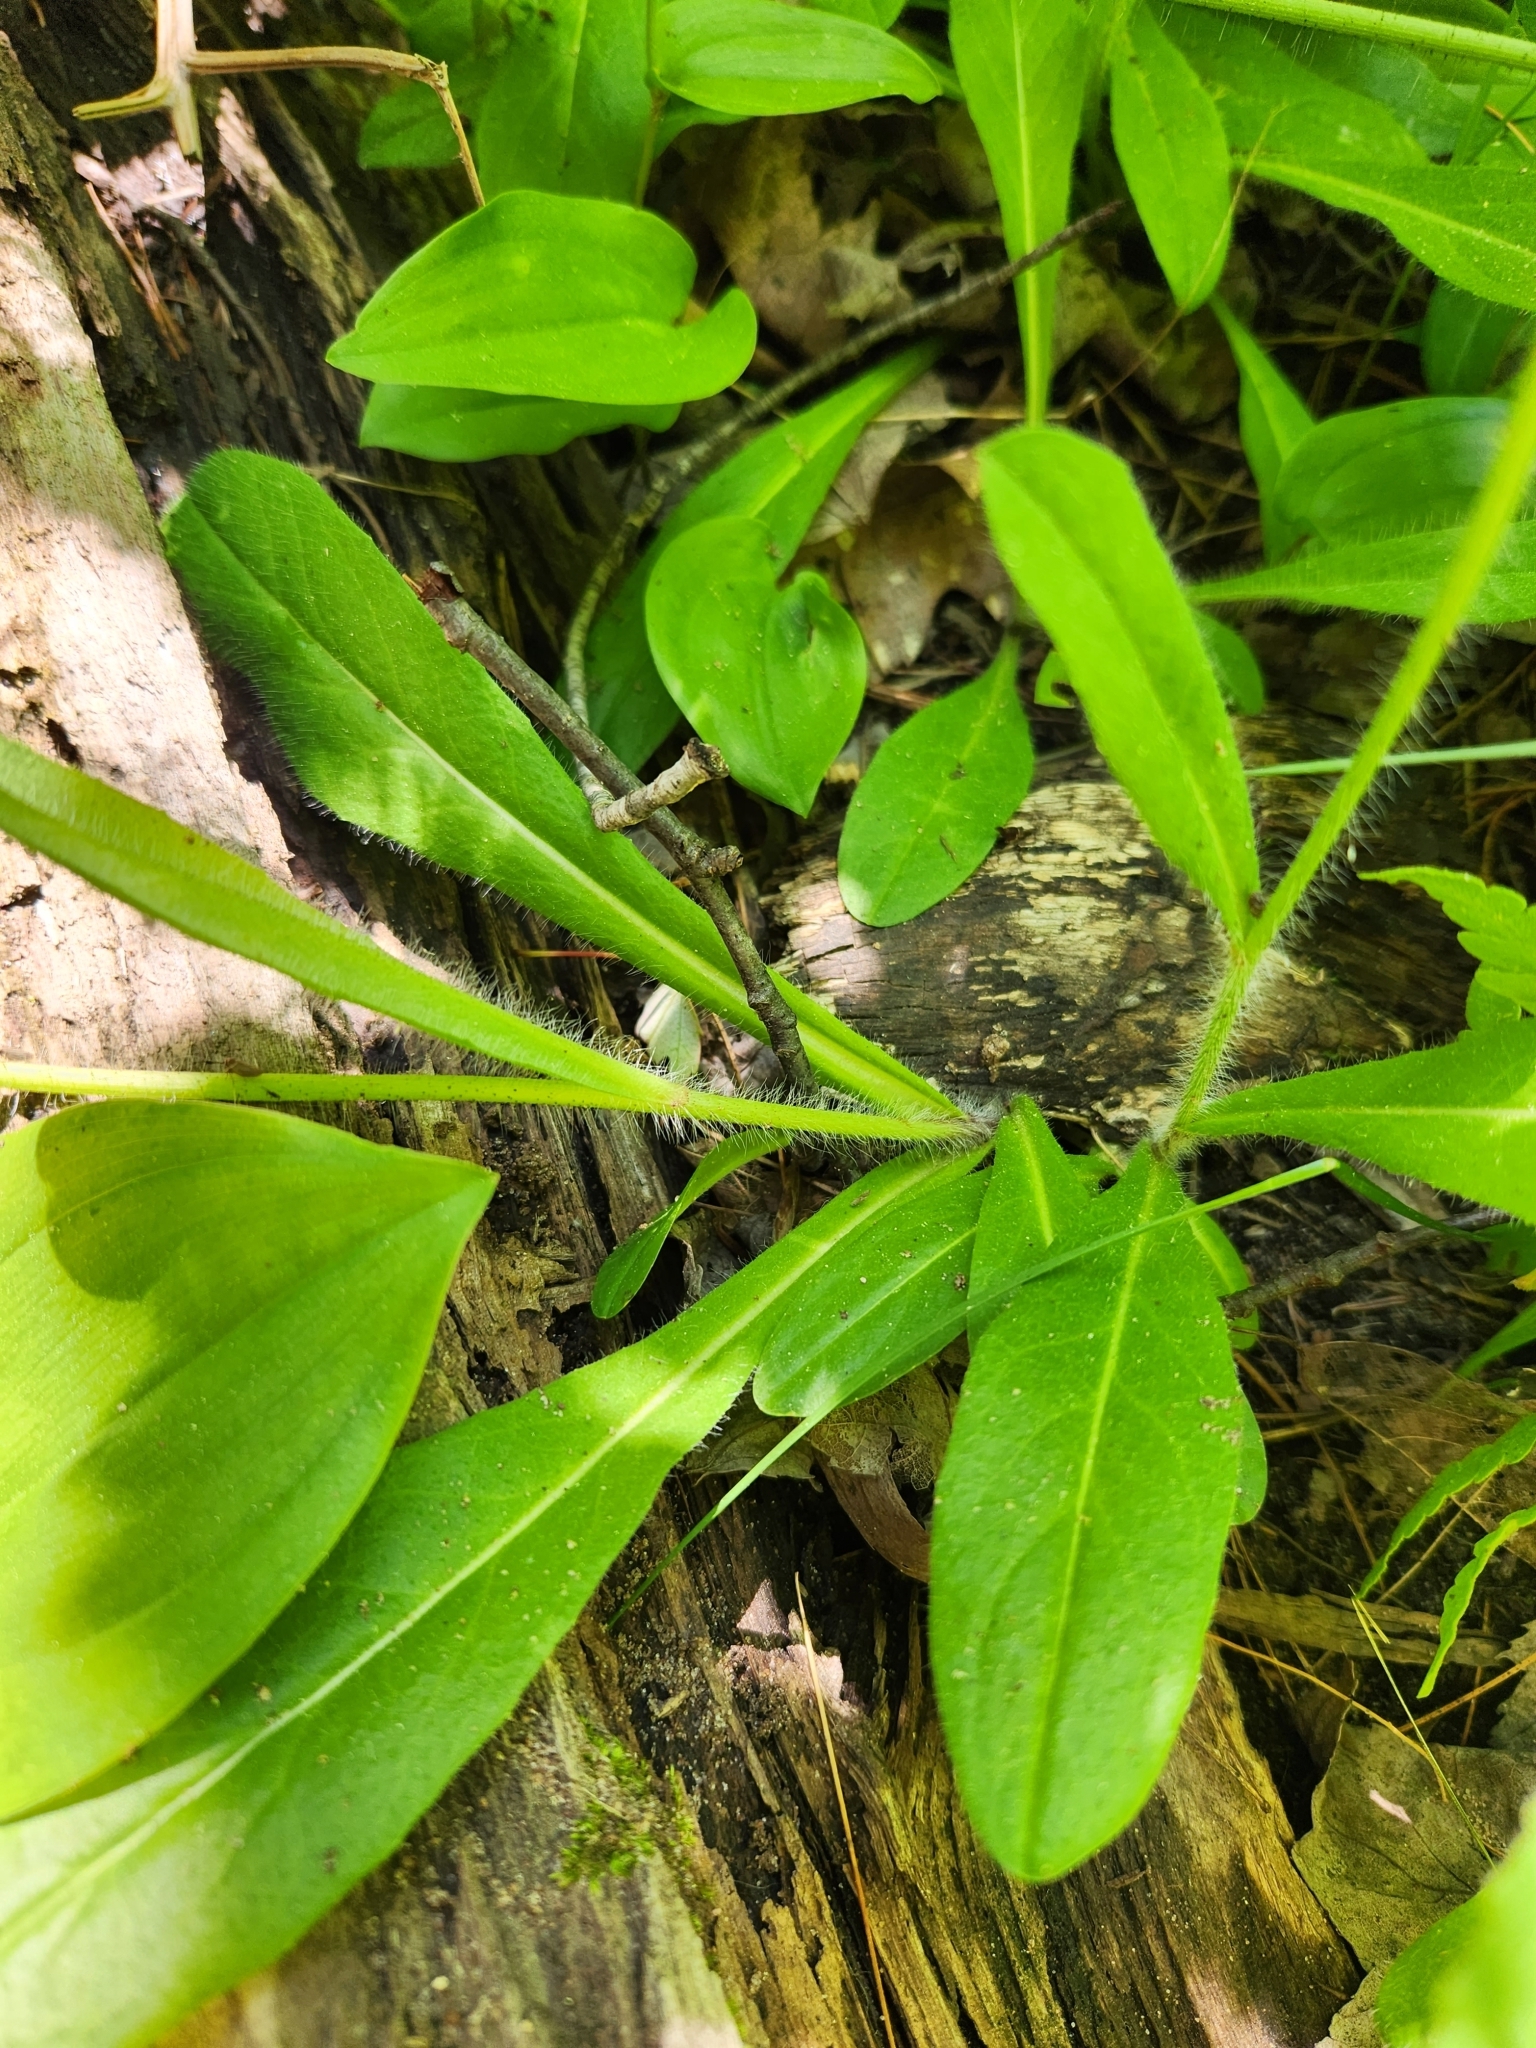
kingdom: Plantae
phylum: Tracheophyta
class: Magnoliopsida
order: Asterales
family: Asteraceae
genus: Pilosella
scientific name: Pilosella aurantiaca
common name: Fox-and-cubs
